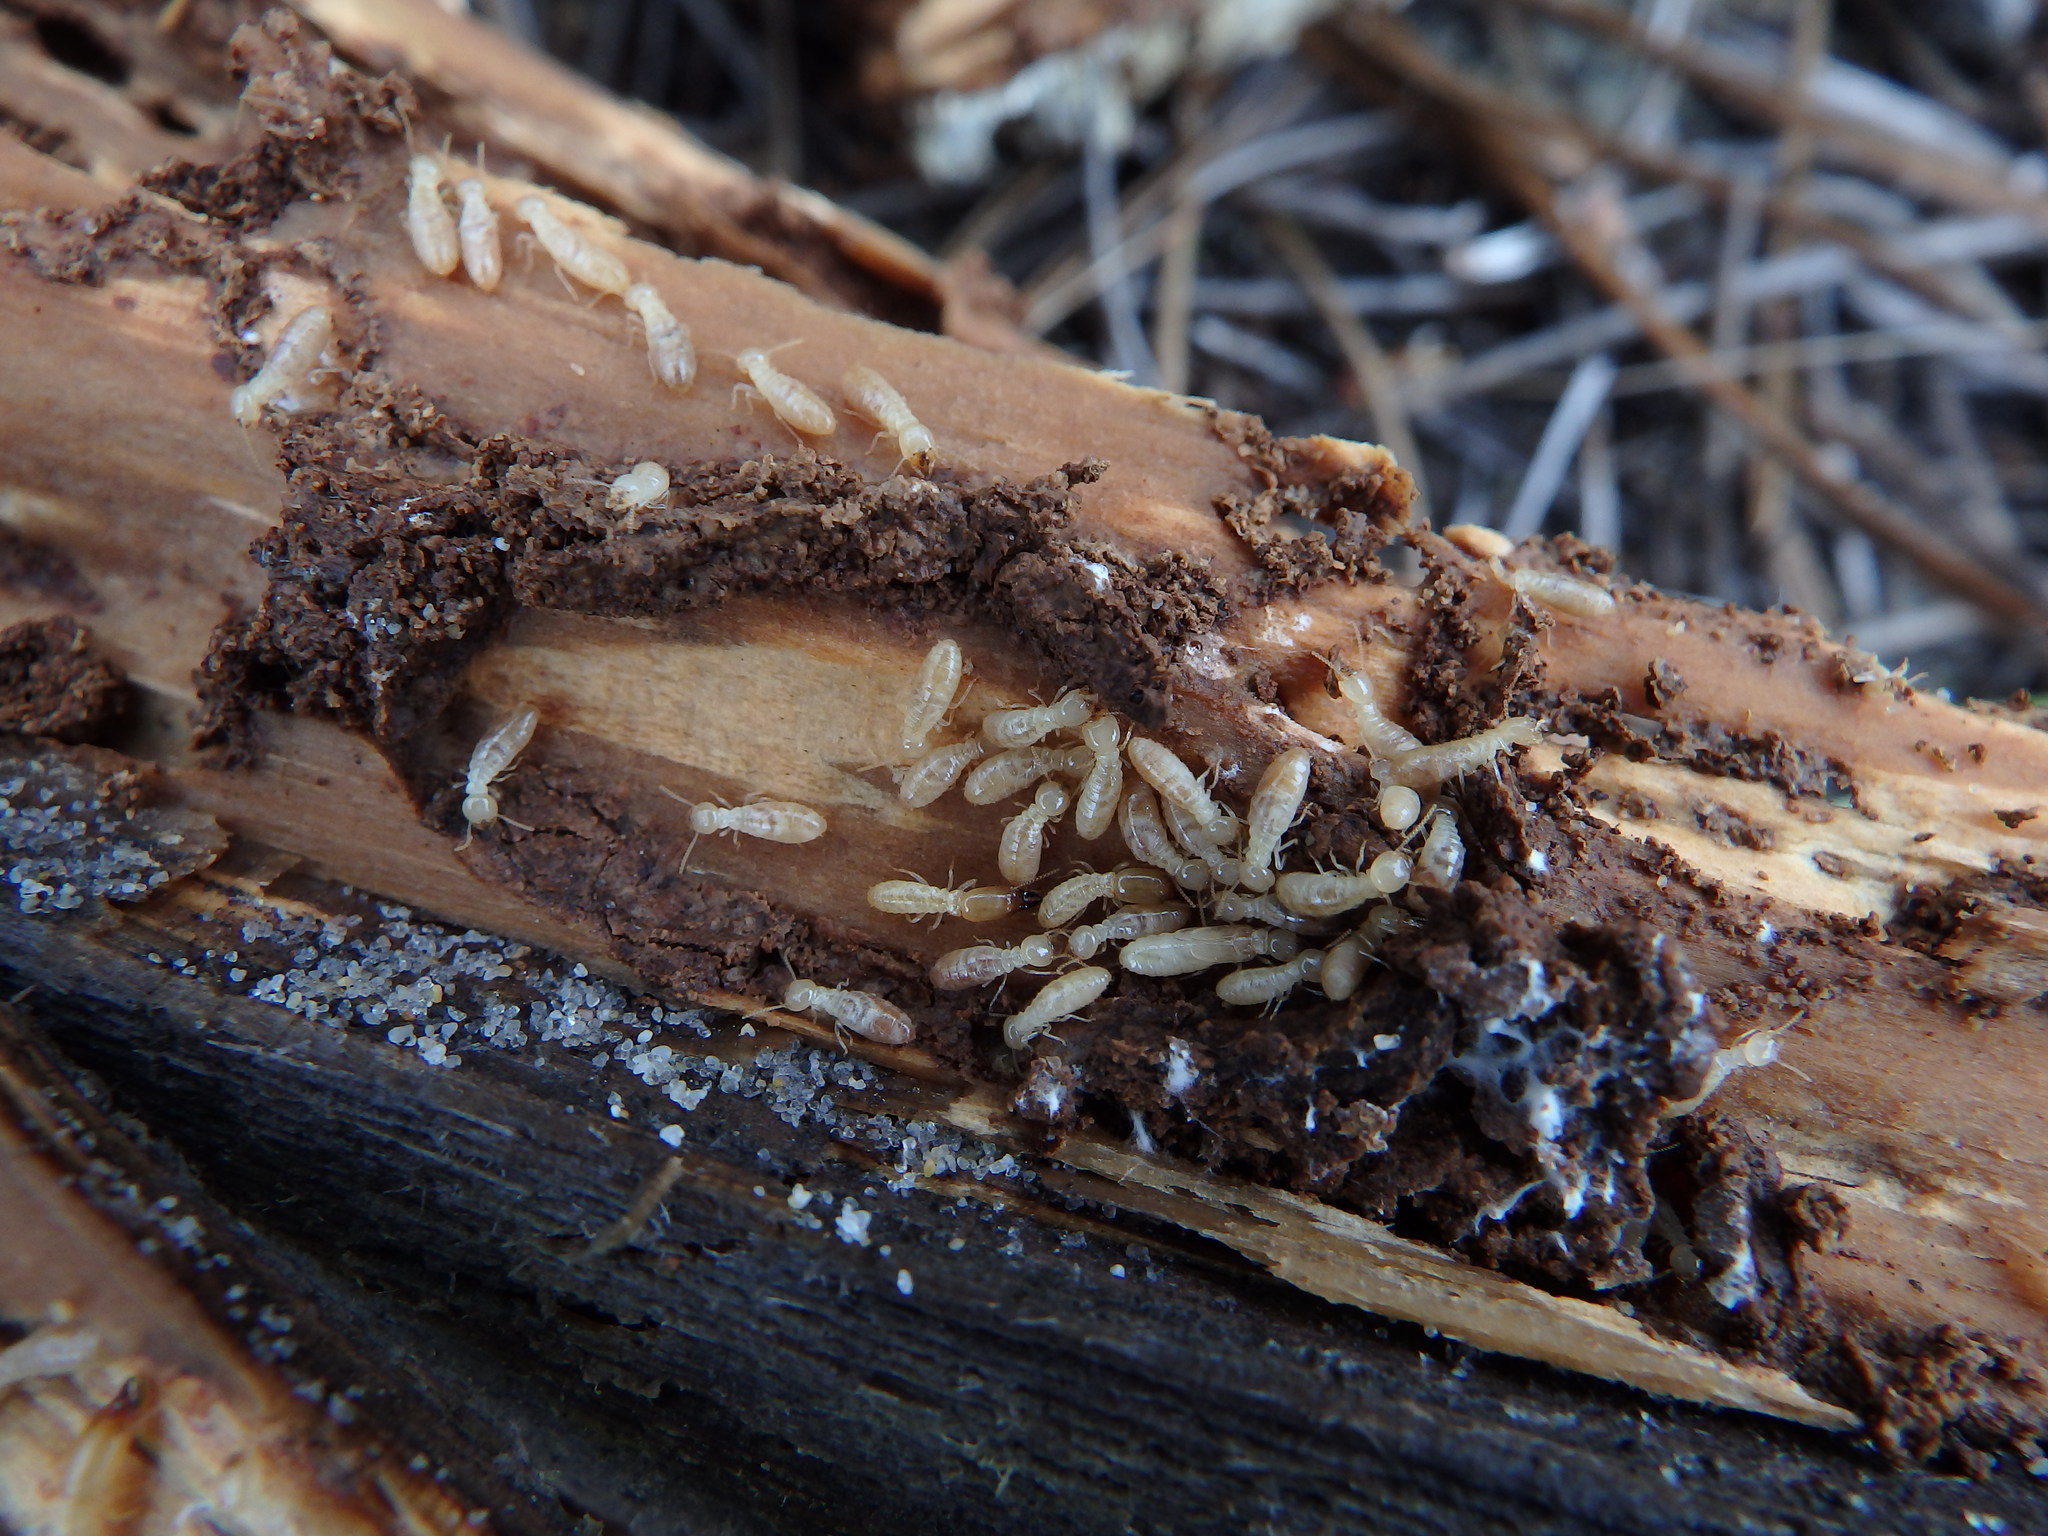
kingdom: Animalia
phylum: Arthropoda
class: Insecta
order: Blattodea
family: Rhinotermitidae
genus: Reticulitermes
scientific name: Reticulitermes grassei
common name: Mediterranean termite
